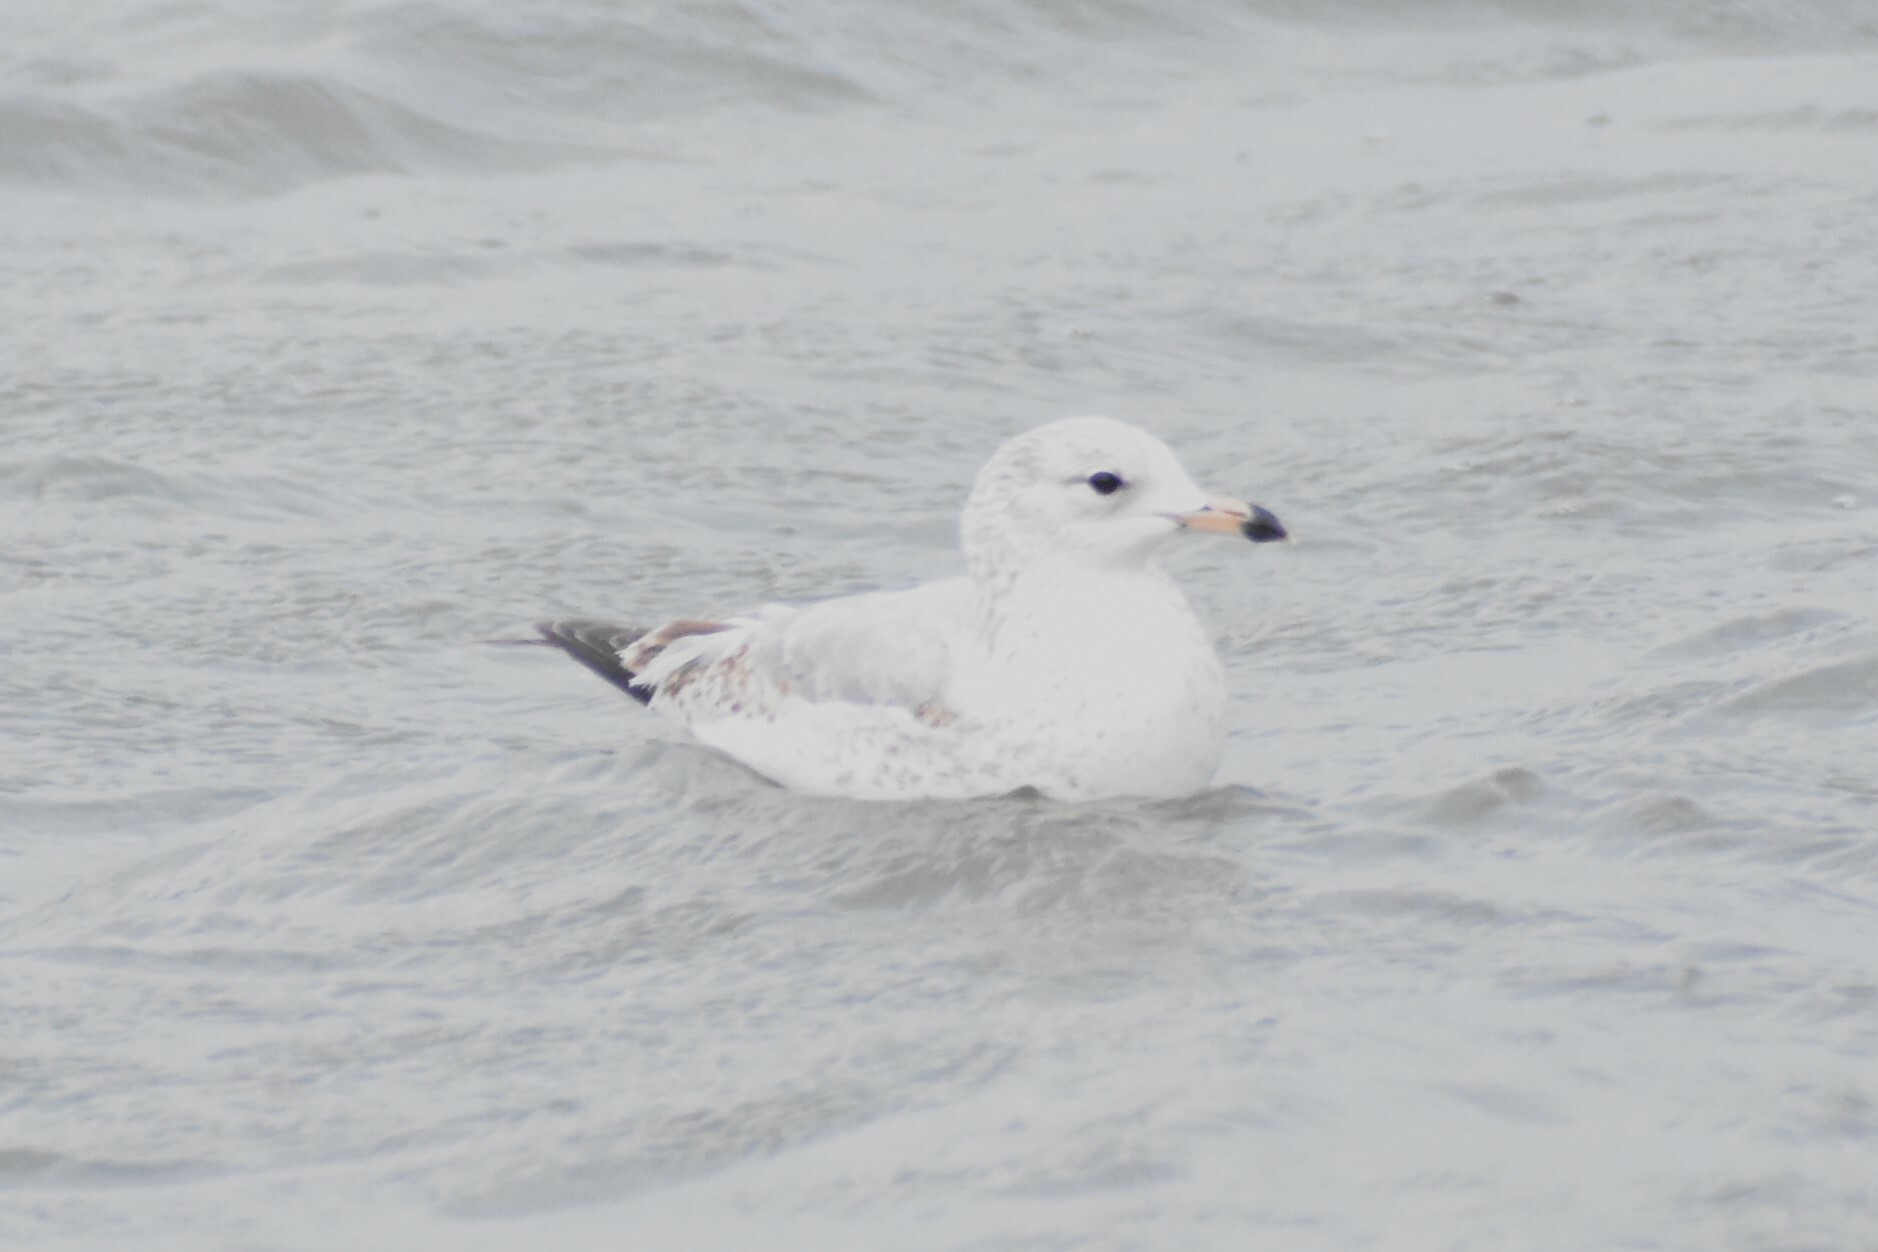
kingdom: Animalia
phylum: Chordata
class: Aves
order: Charadriiformes
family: Laridae
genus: Larus
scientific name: Larus delawarensis
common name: Ring-billed gull
